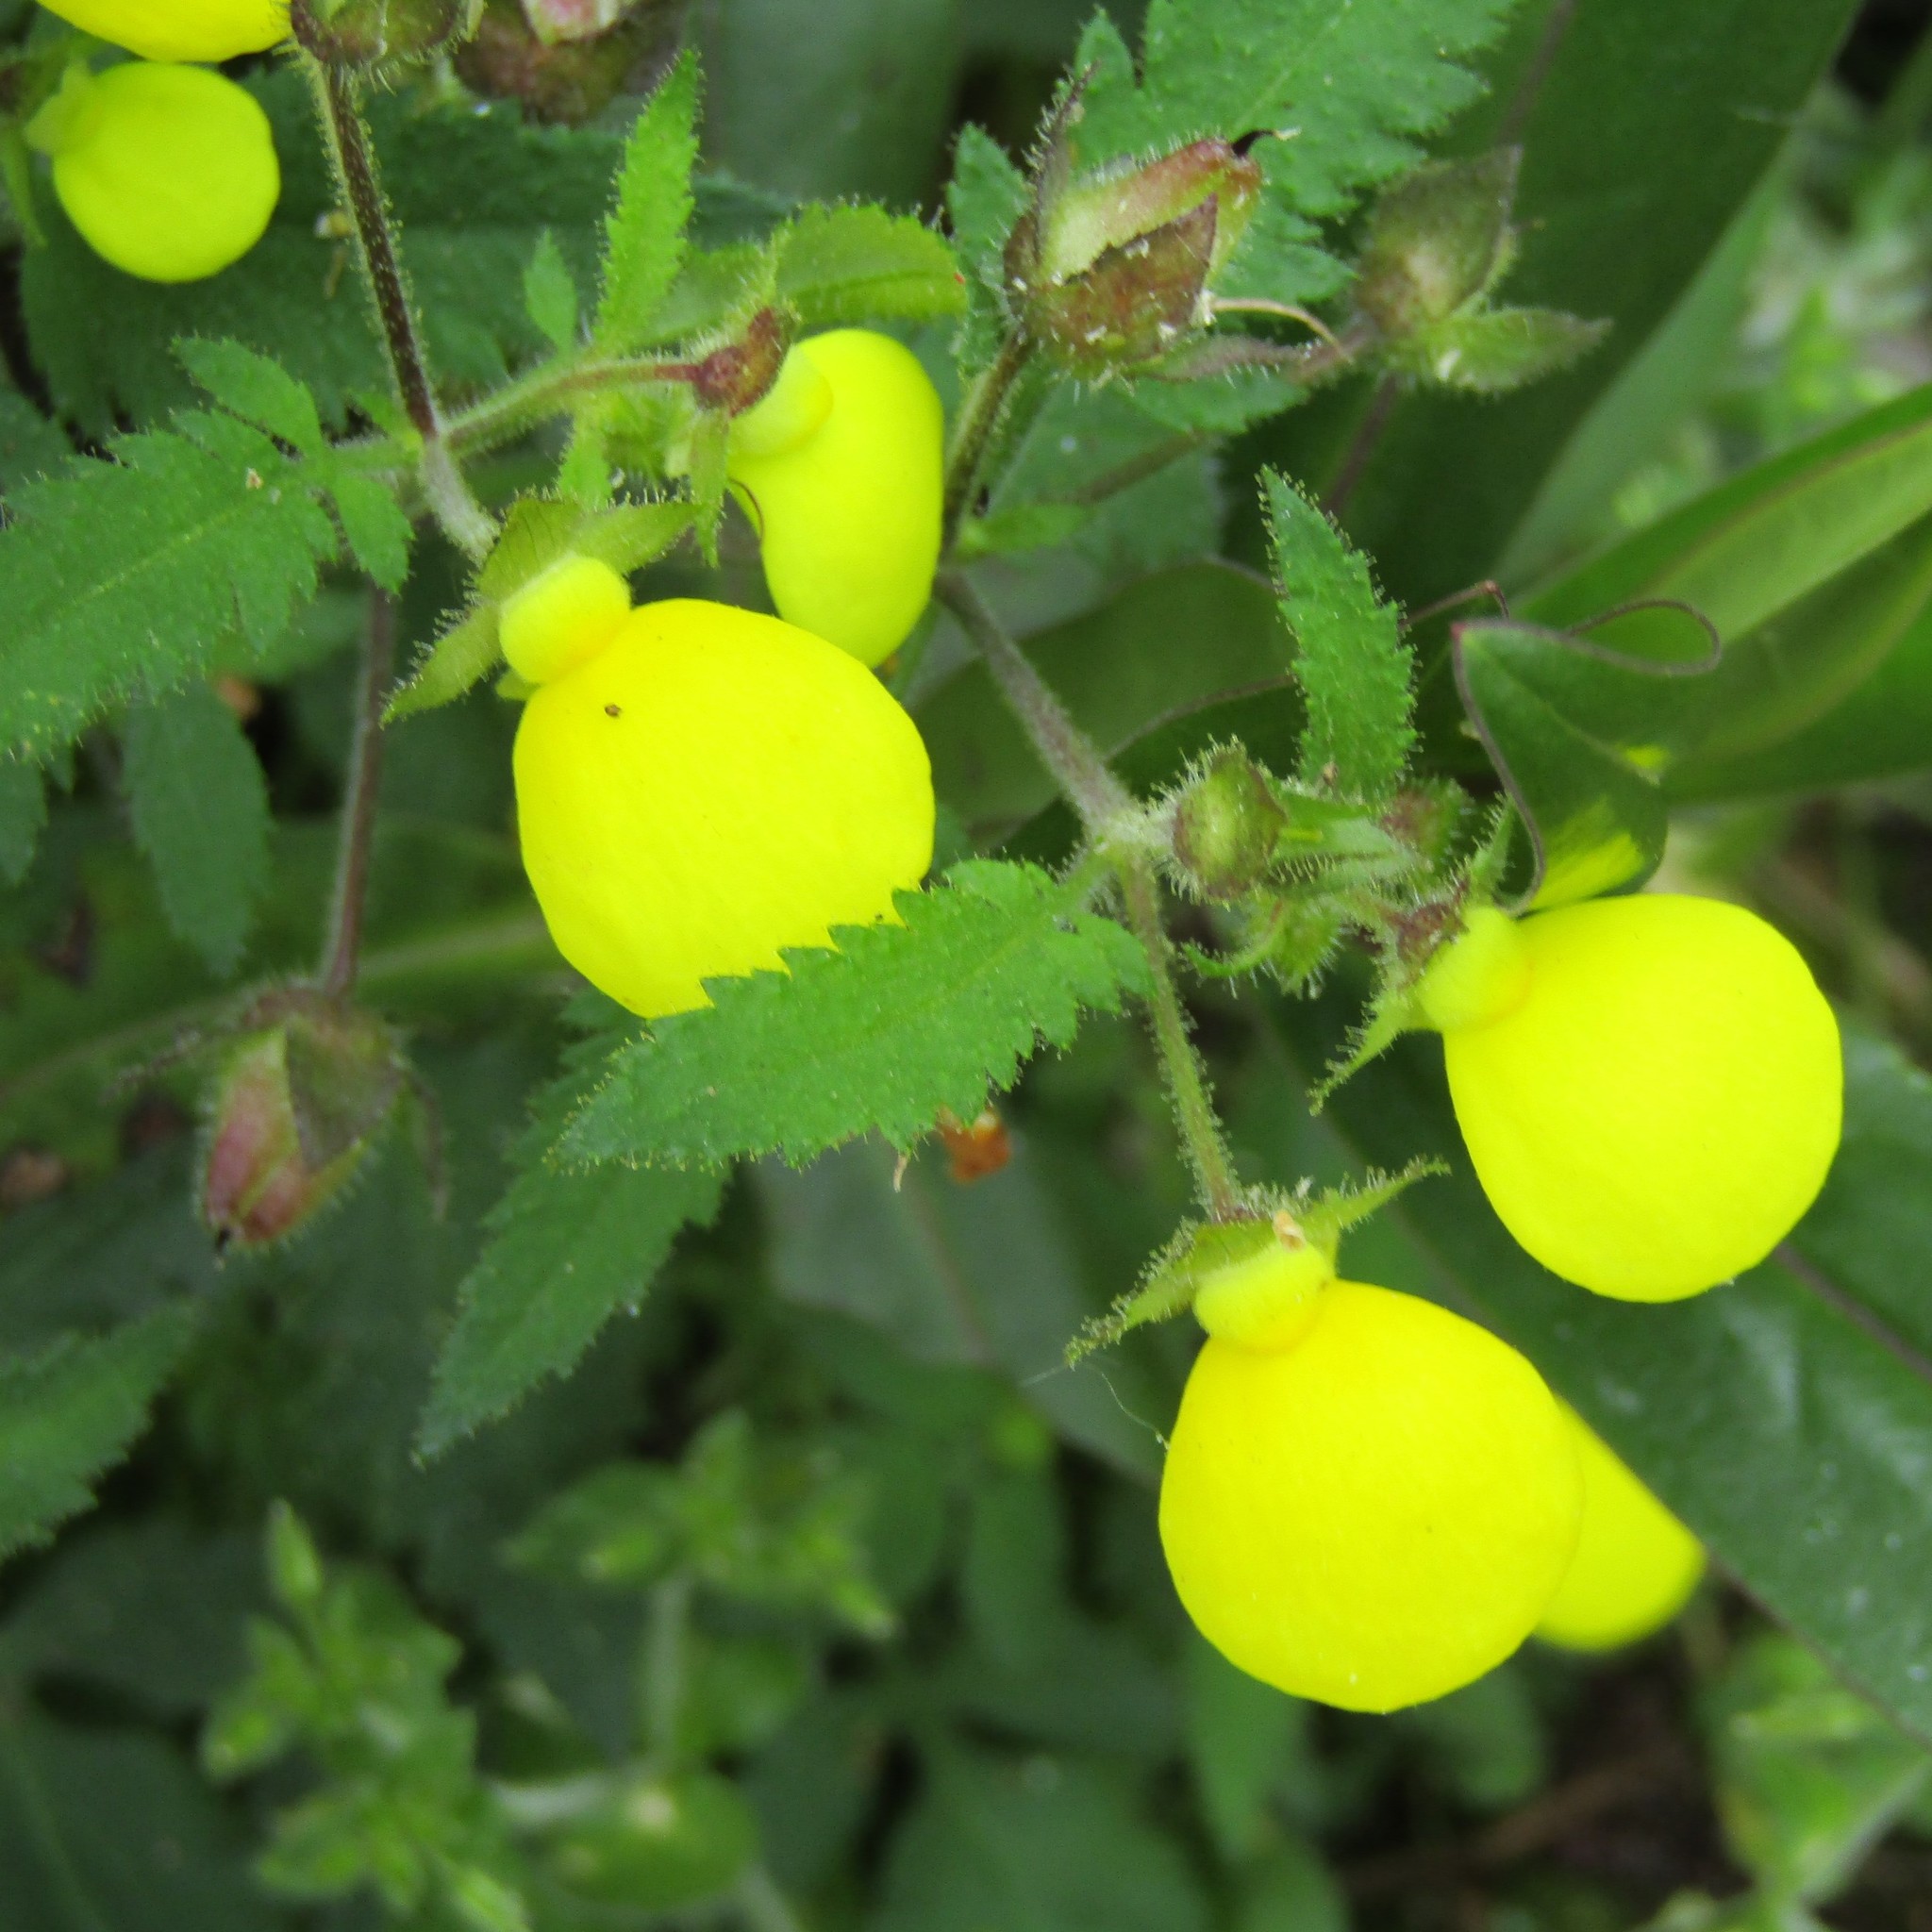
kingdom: Plantae
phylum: Tracheophyta
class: Magnoliopsida
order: Lamiales
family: Calceolariaceae
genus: Calceolaria
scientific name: Calceolaria tripartita
